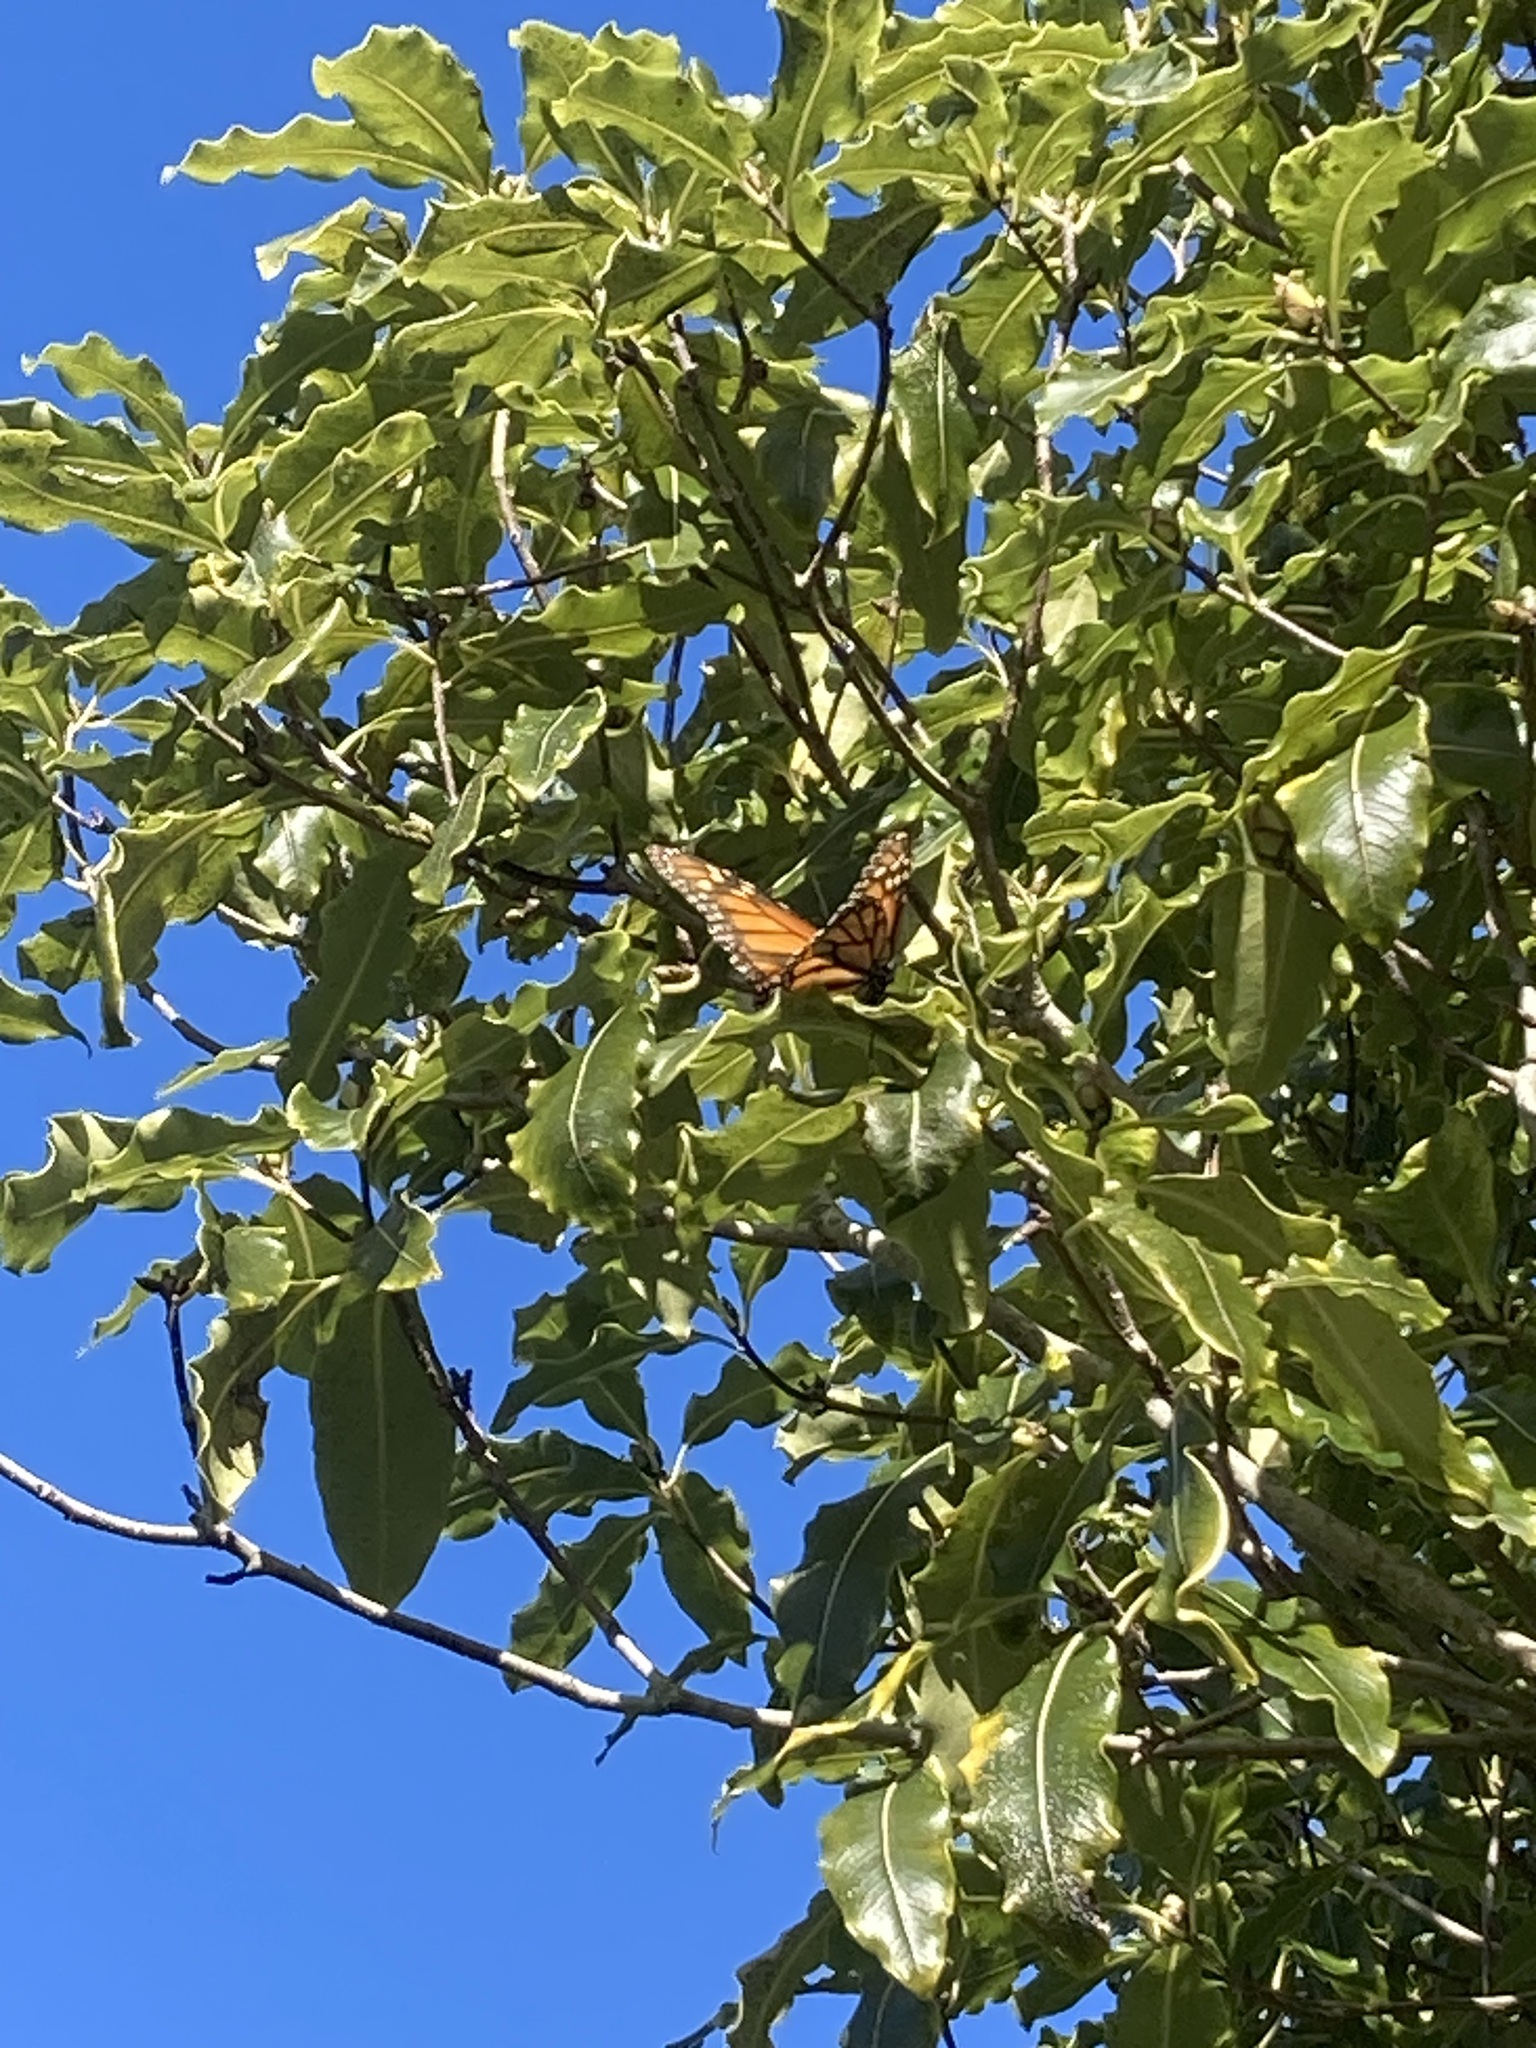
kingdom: Animalia
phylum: Arthropoda
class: Insecta
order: Lepidoptera
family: Nymphalidae
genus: Danaus
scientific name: Danaus plexippus
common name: Monarch
